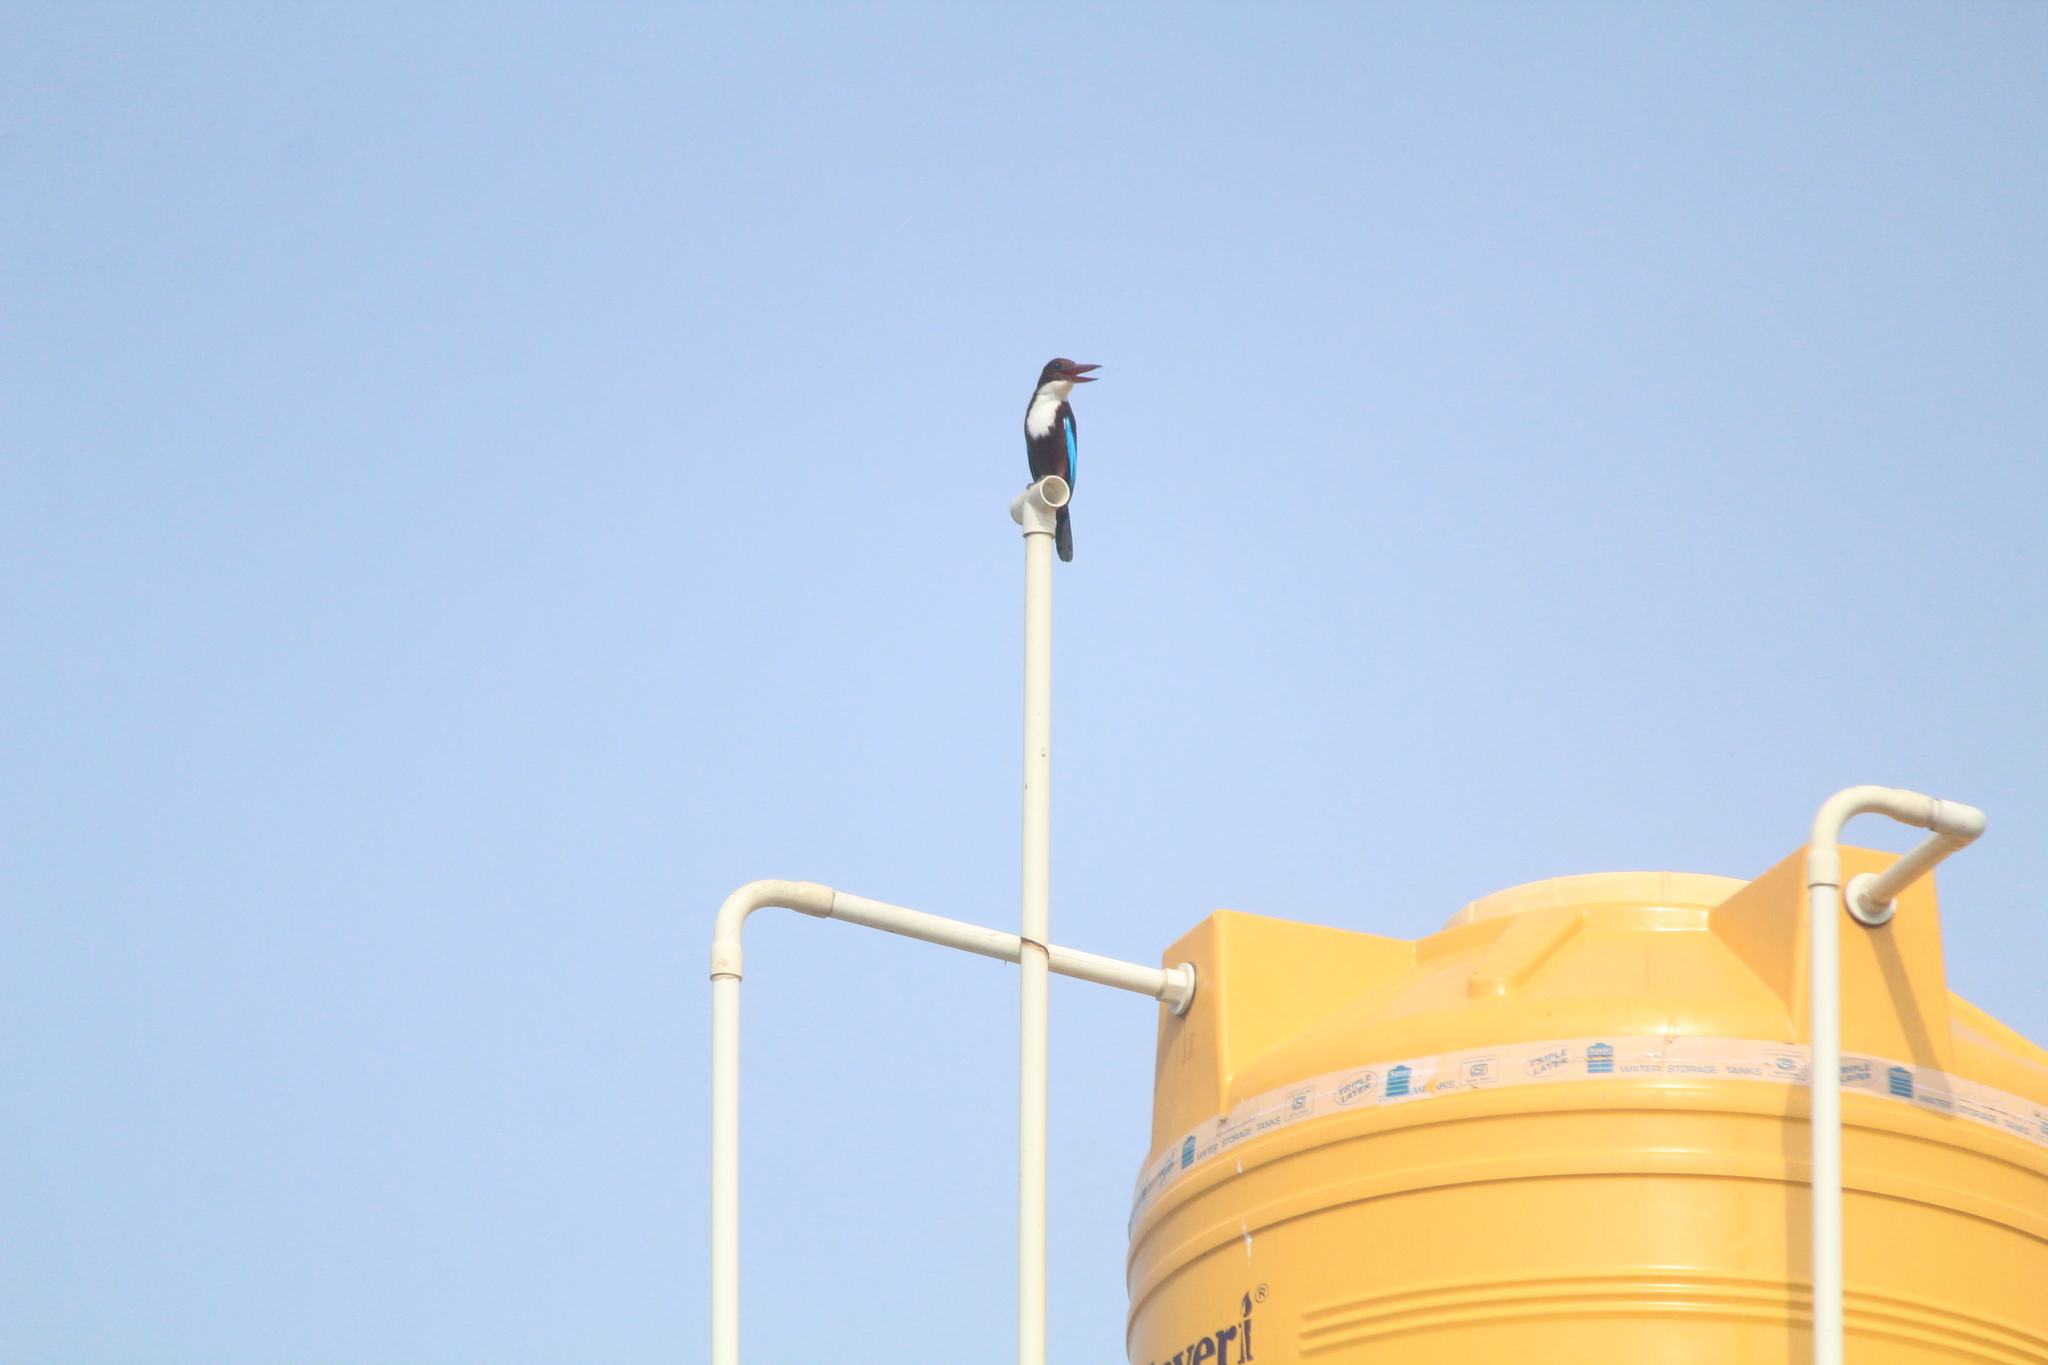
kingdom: Animalia
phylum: Chordata
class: Aves
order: Coraciiformes
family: Alcedinidae
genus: Halcyon
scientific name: Halcyon smyrnensis
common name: White-throated kingfisher
